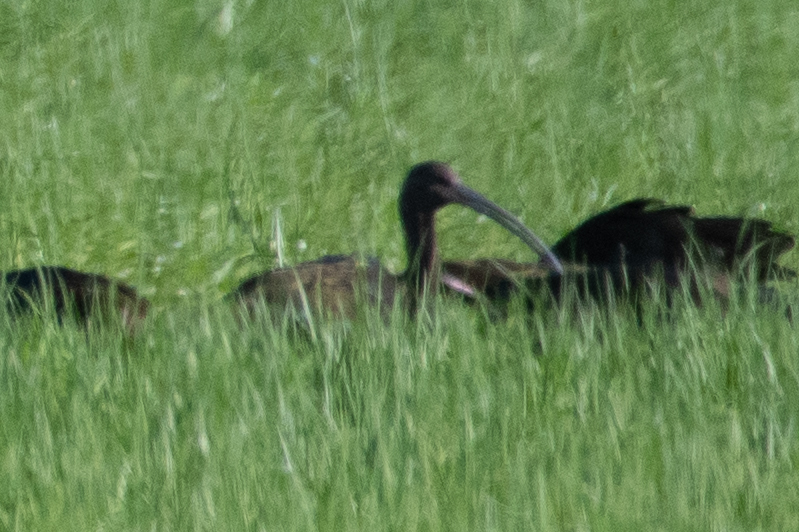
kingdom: Animalia
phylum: Chordata
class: Aves
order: Pelecaniformes
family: Threskiornithidae
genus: Plegadis
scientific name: Plegadis chihi
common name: White-faced ibis
